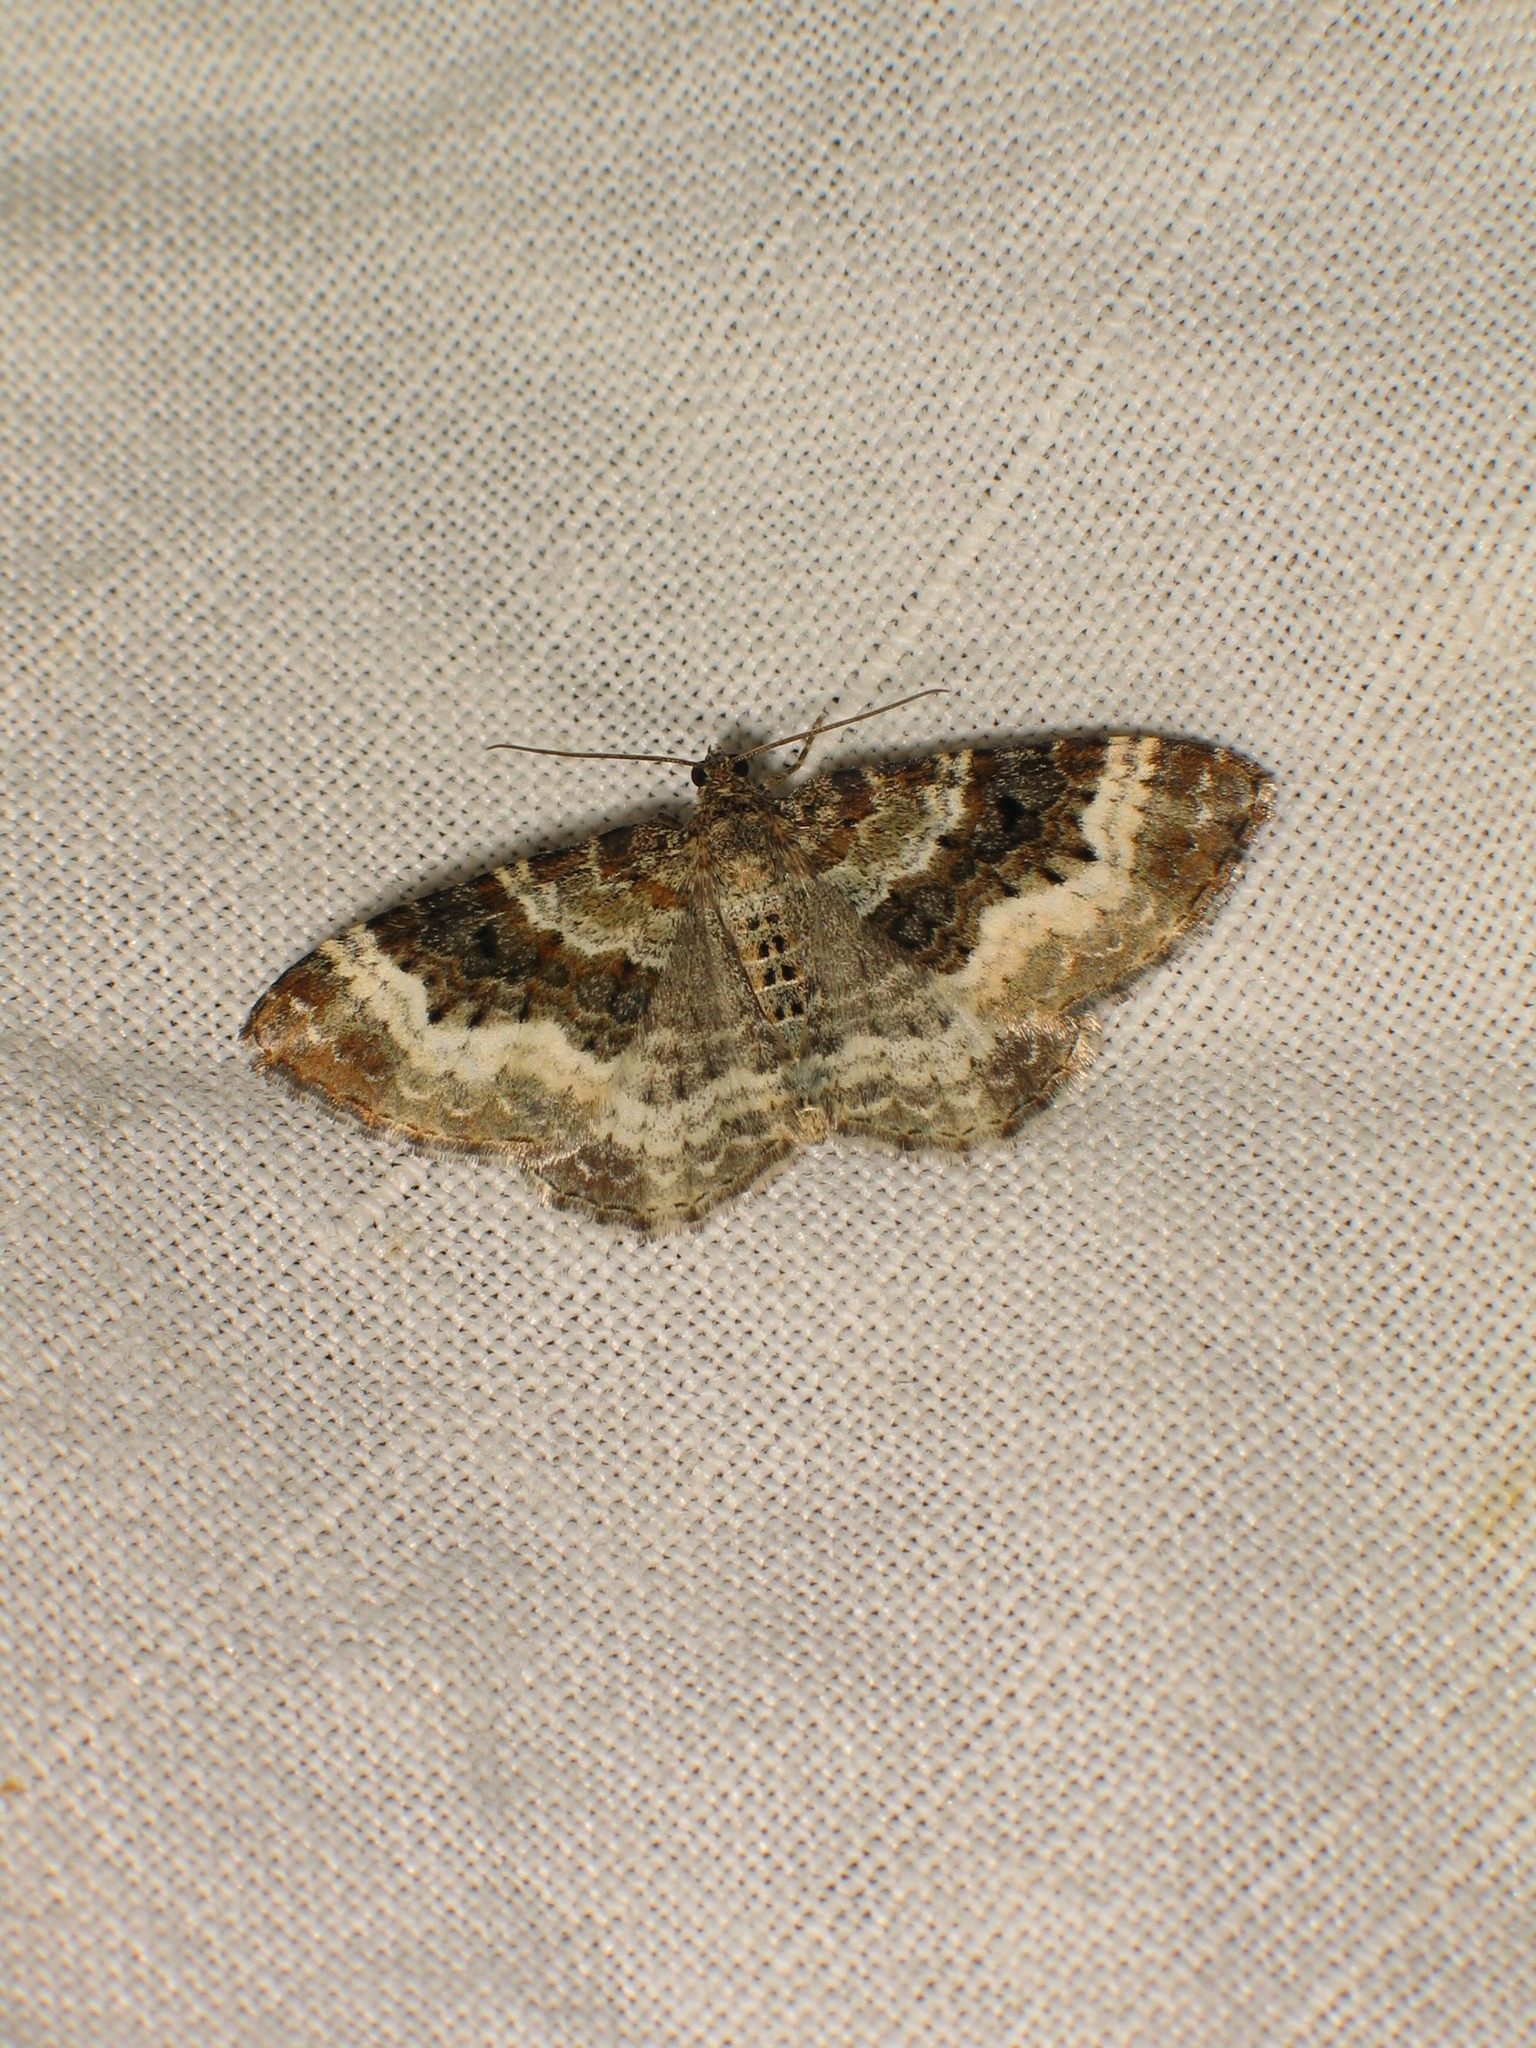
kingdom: Animalia
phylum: Arthropoda
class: Insecta
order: Lepidoptera
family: Geometridae
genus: Epirrhoe
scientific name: Epirrhoe alternata
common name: Common carpet
